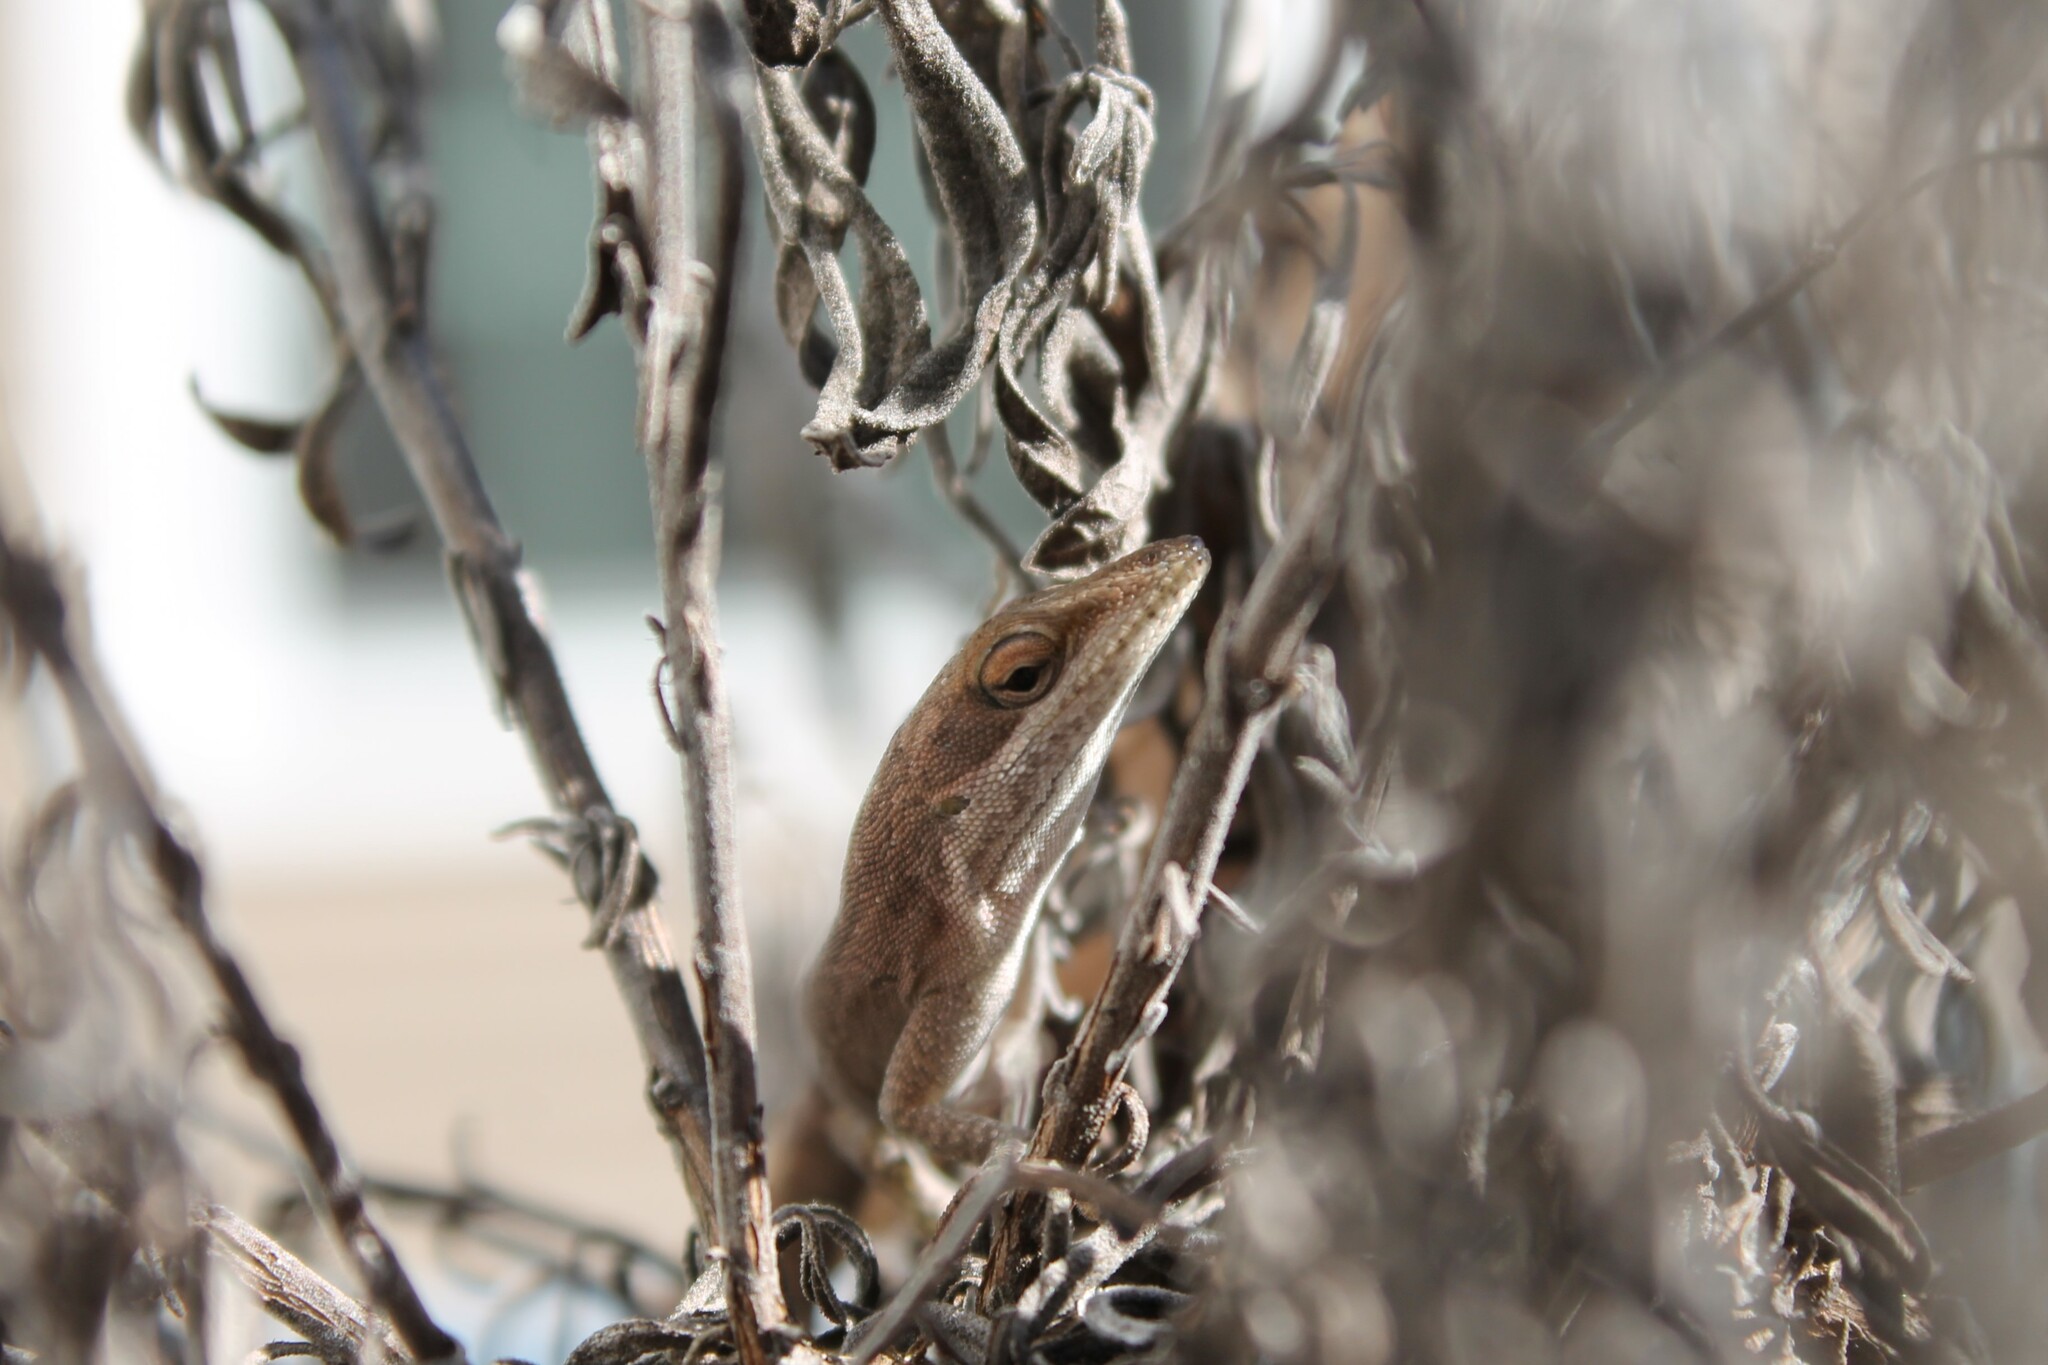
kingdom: Animalia
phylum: Chordata
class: Squamata
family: Dactyloidae
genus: Anolis
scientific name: Anolis carolinensis
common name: Green anole
